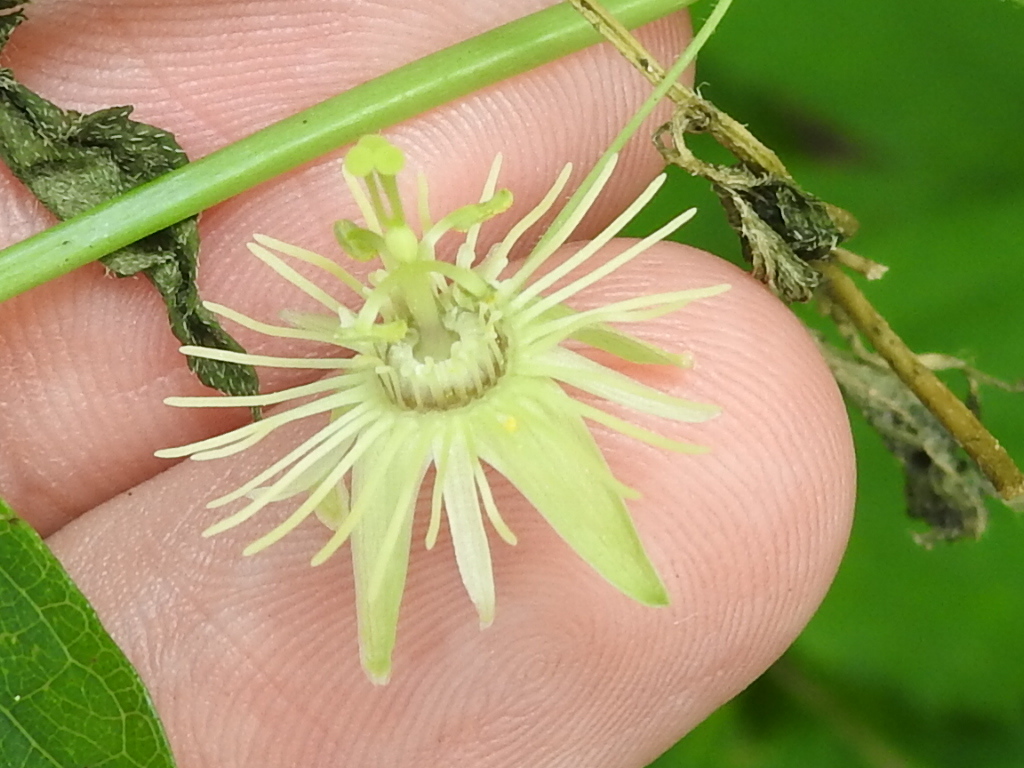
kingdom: Plantae
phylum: Tracheophyta
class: Magnoliopsida
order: Malpighiales
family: Passifloraceae
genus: Passiflora
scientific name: Passiflora lutea
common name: Yellow passionflower
